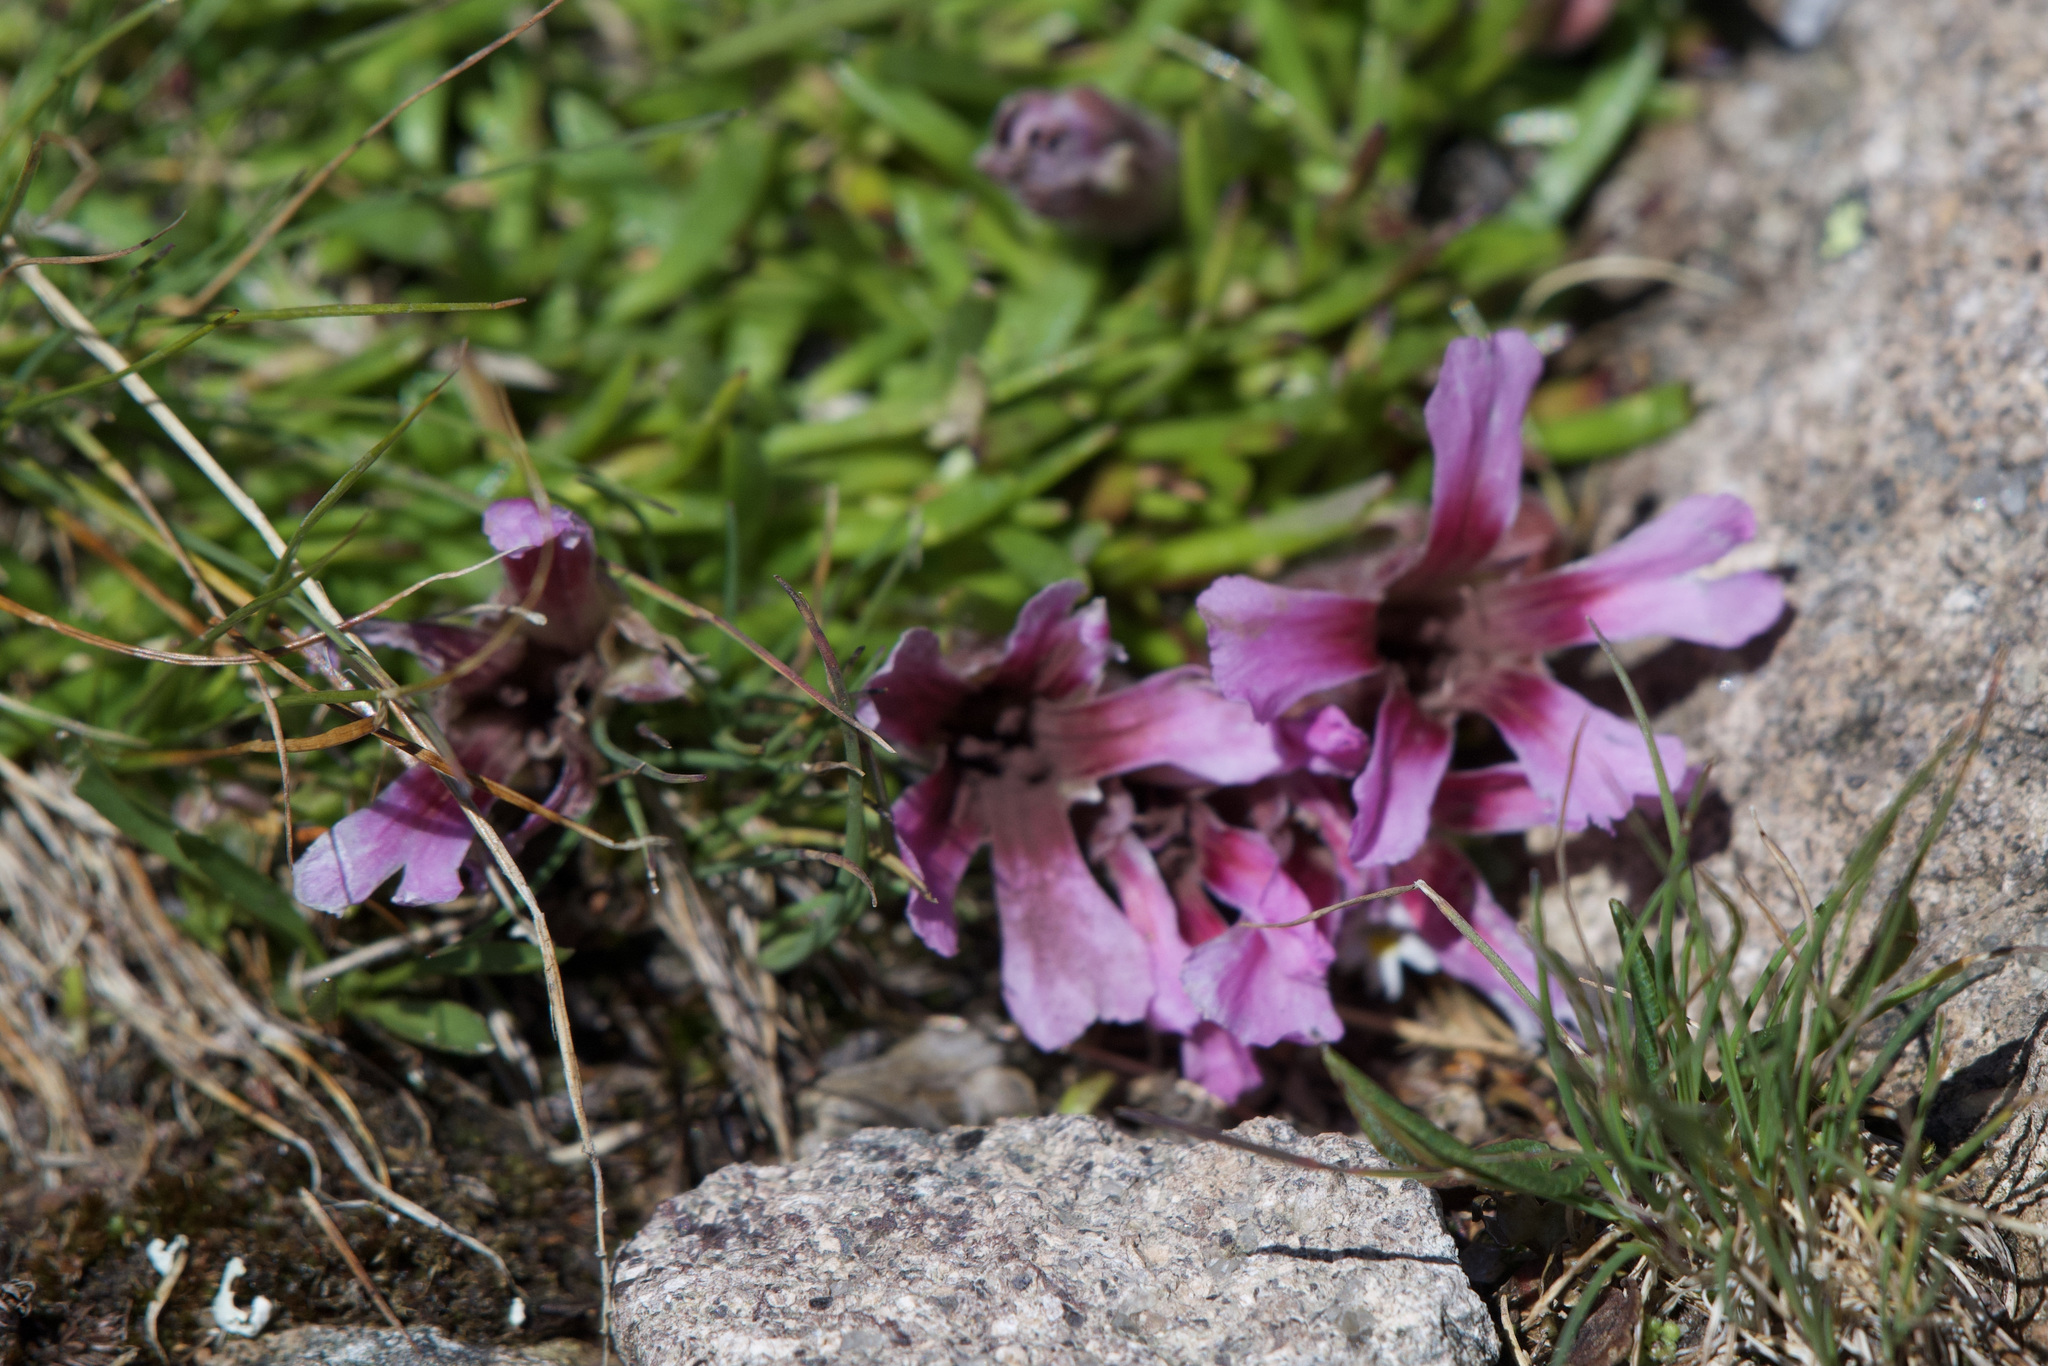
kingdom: Plantae
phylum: Tracheophyta
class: Magnoliopsida
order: Caryophyllales
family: Caryophyllaceae
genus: Saponaria
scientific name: Saponaria pumila
